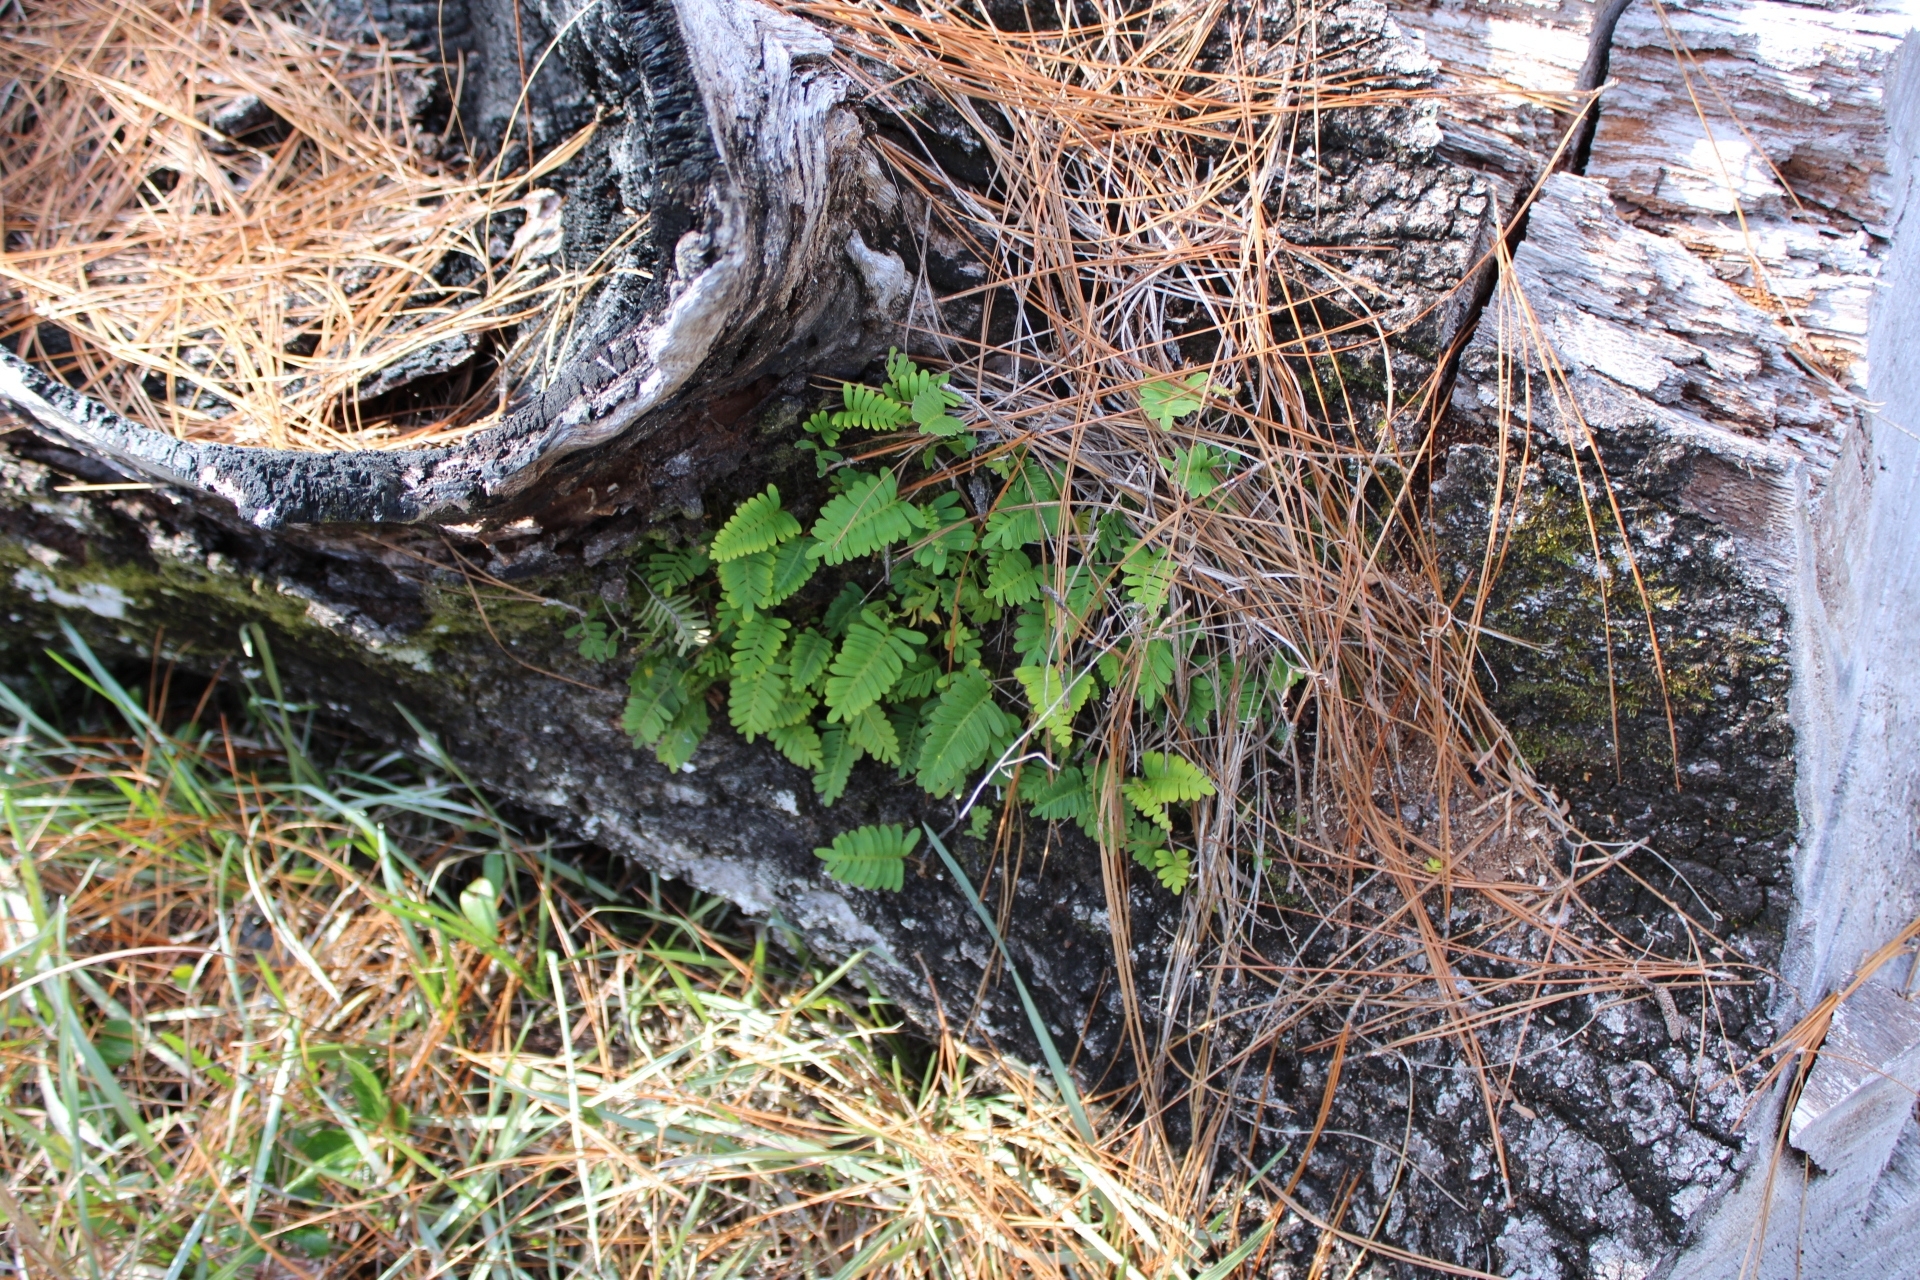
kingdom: Plantae
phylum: Tracheophyta
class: Polypodiopsida
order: Polypodiales
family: Polypodiaceae
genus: Pleopeltis
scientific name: Pleopeltis michauxiana
